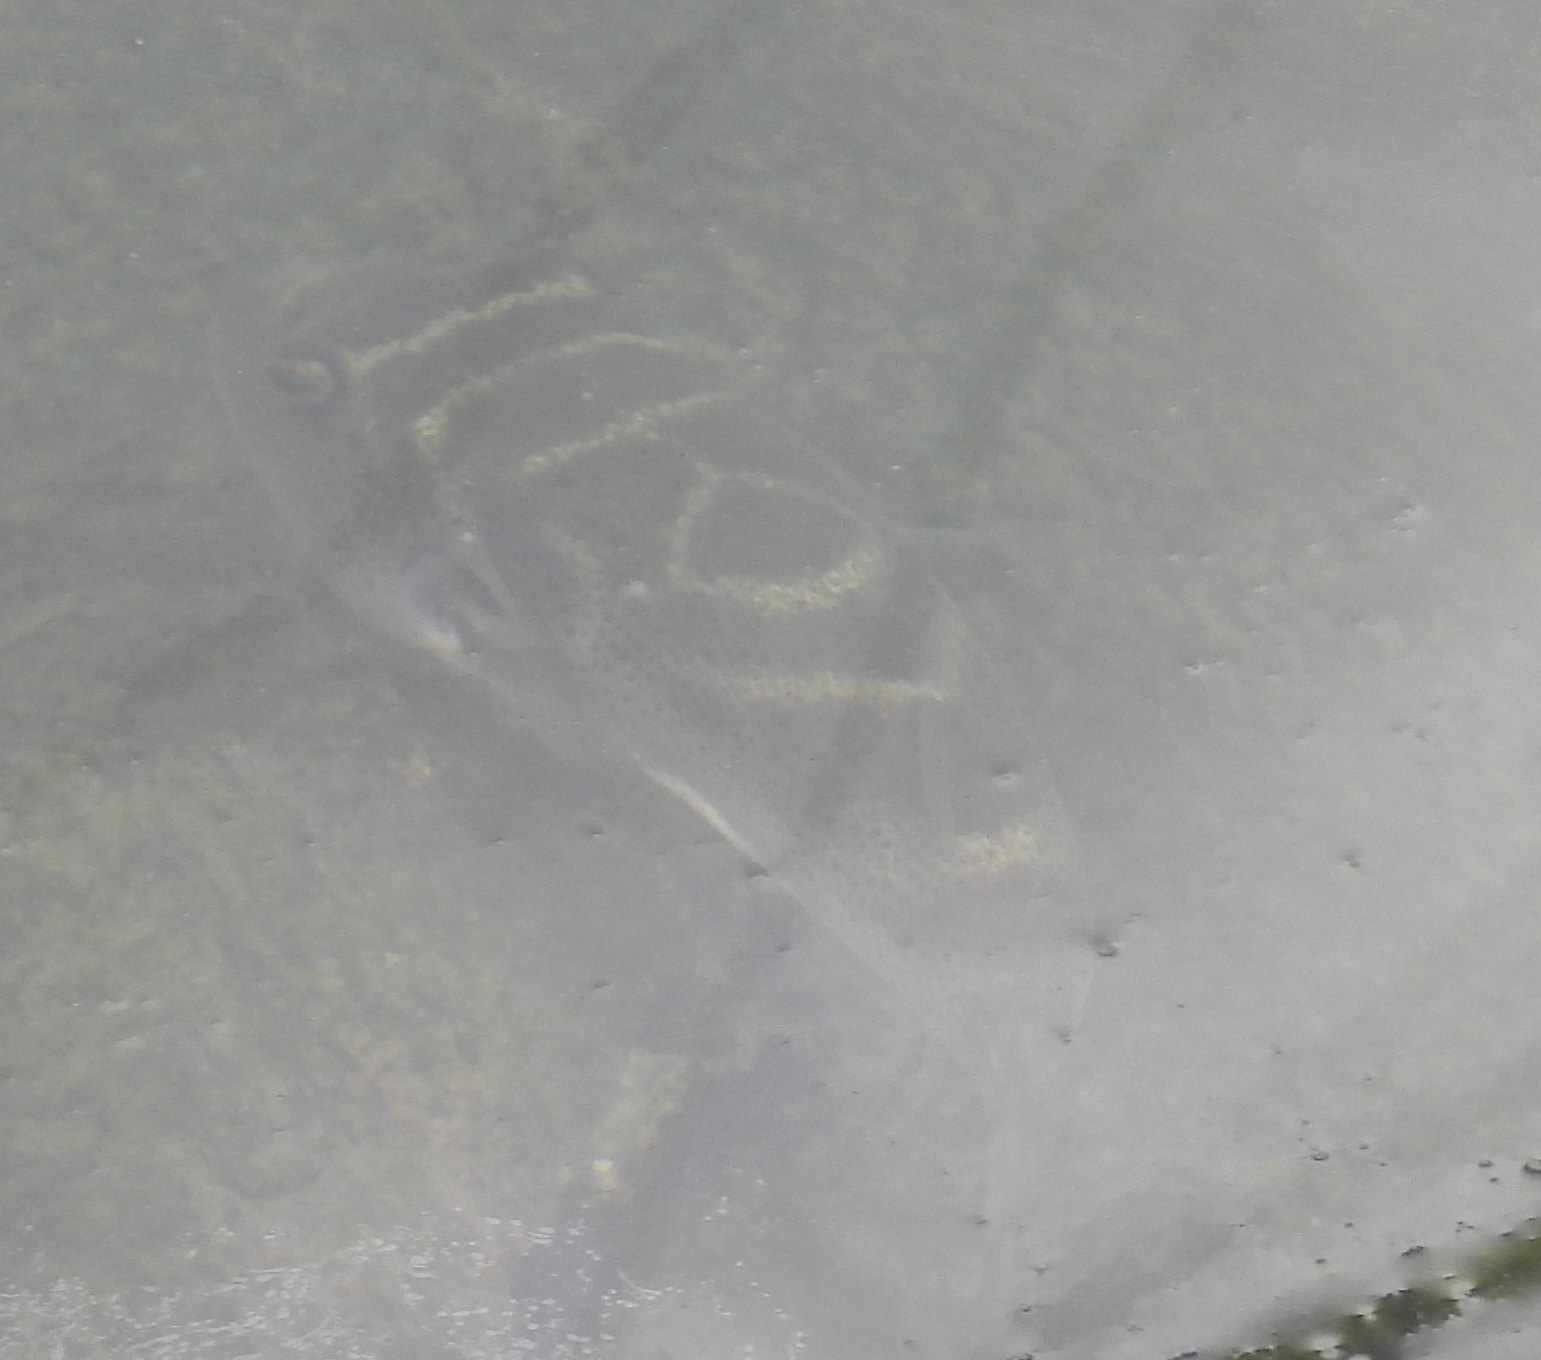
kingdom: Animalia
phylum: Chordata
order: Tetraodontiformes
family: Tetraodontidae
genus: Sphoeroides
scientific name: Sphoeroides annulatus
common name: Bullseye puffer
